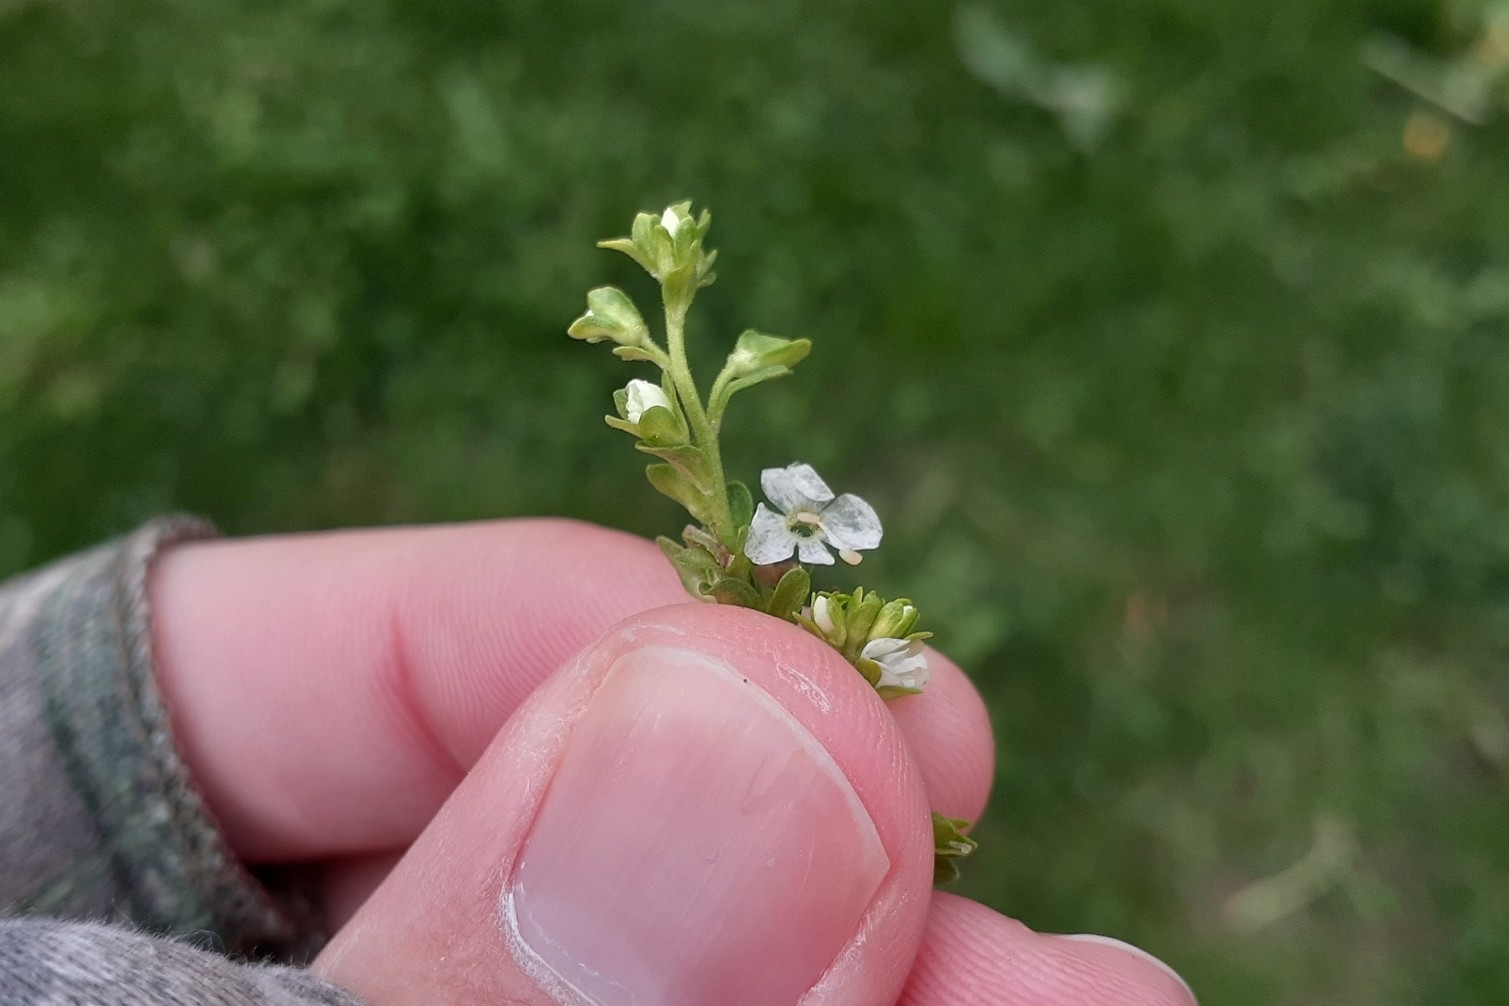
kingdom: Plantae
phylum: Tracheophyta
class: Magnoliopsida
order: Lamiales
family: Plantaginaceae
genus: Veronica
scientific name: Veronica serpyllifolia
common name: Thyme-leaved speedwell
